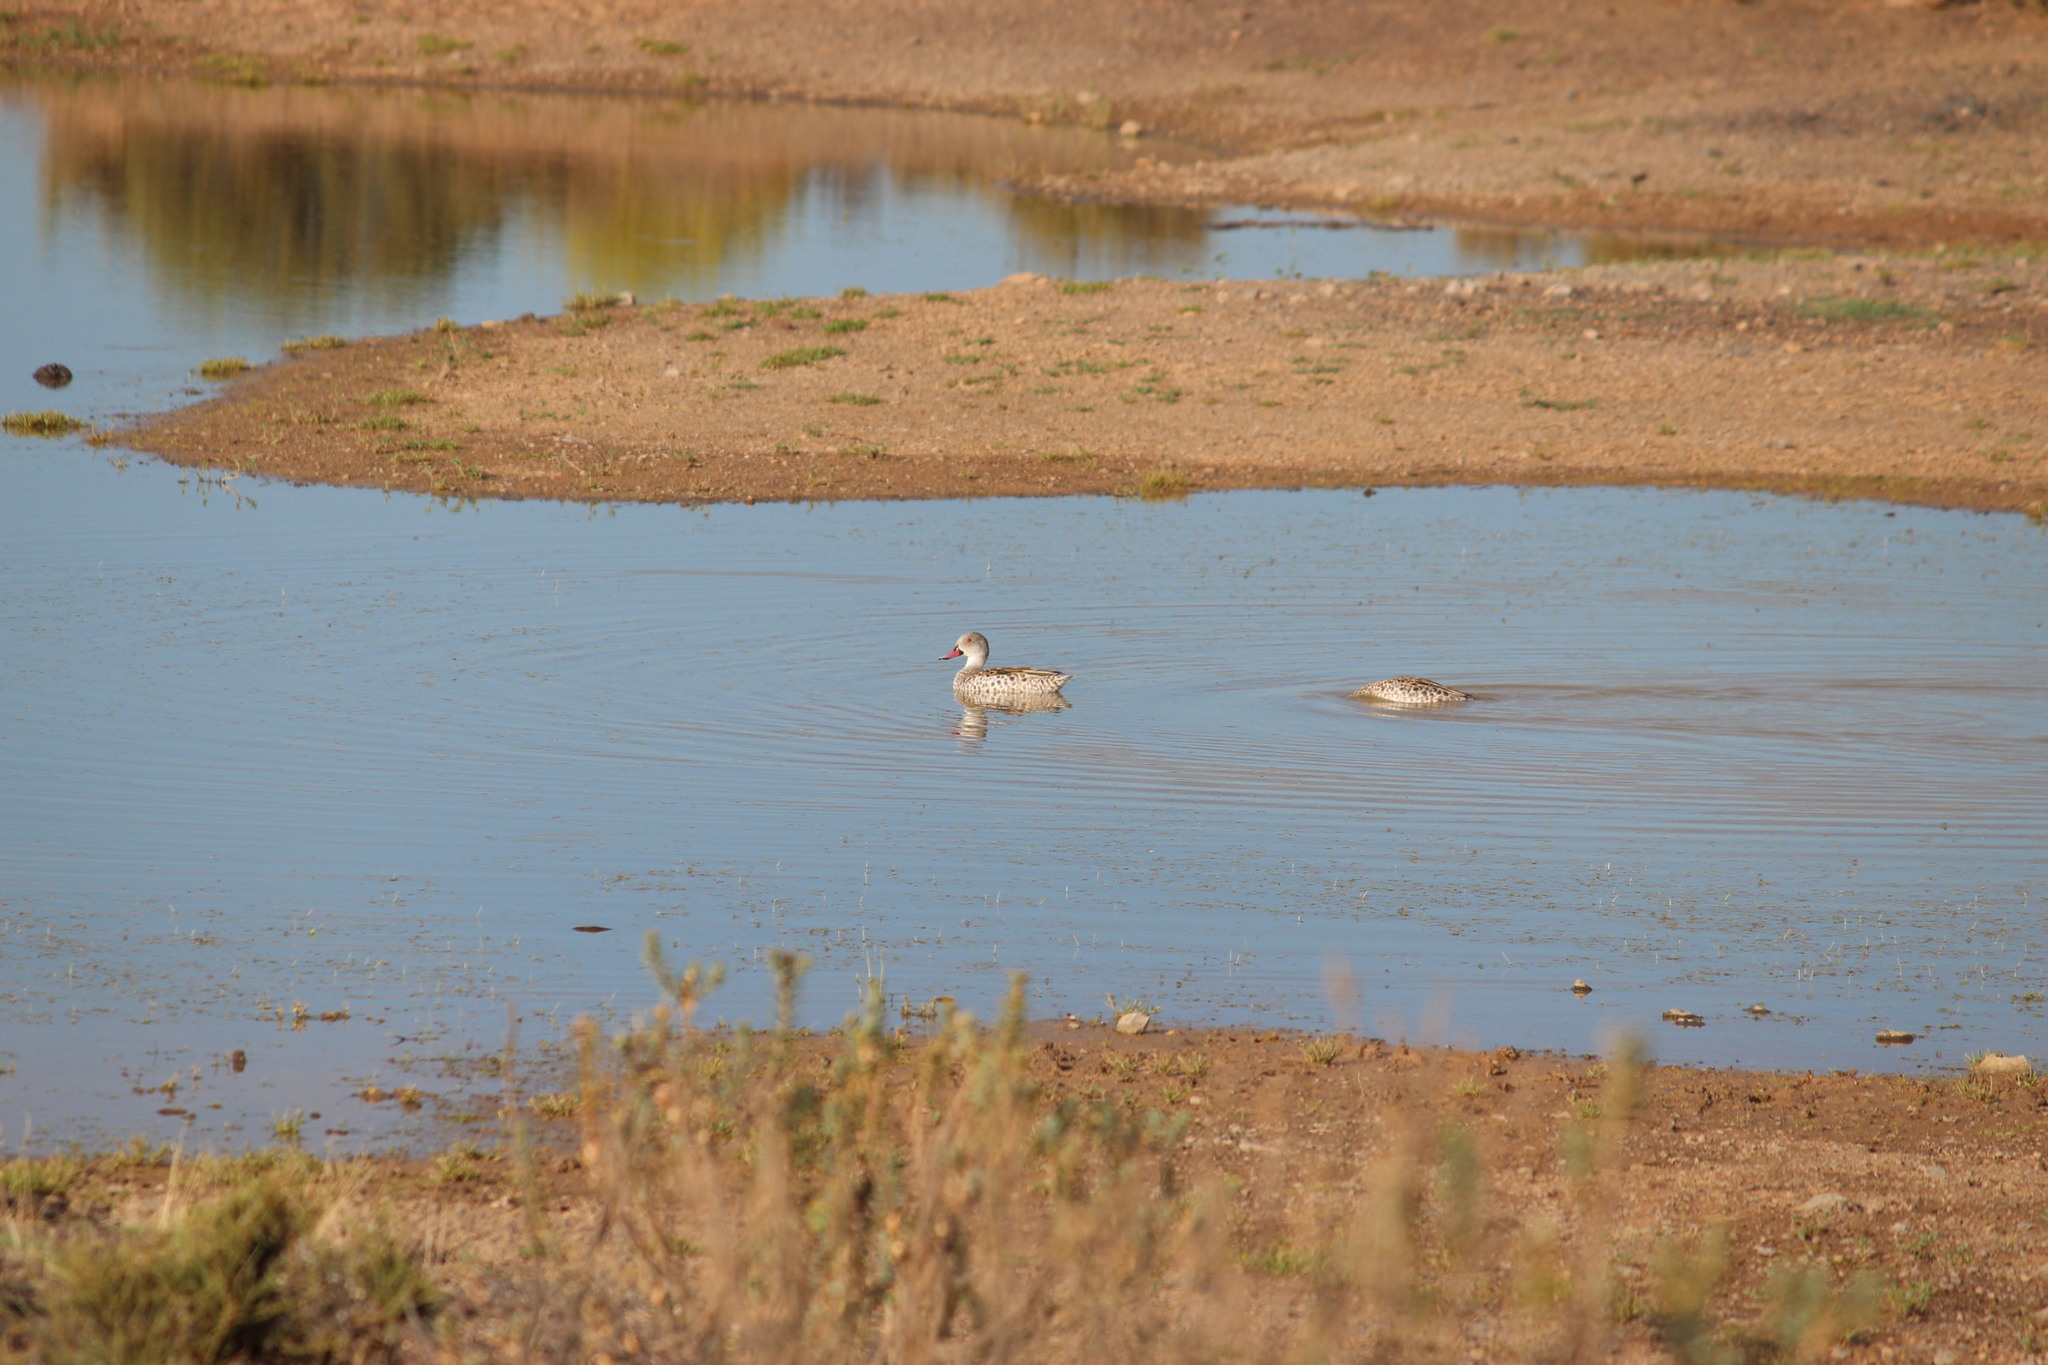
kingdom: Animalia
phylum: Chordata
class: Aves
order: Anseriformes
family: Anatidae
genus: Anas
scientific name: Anas capensis
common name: Cape teal
